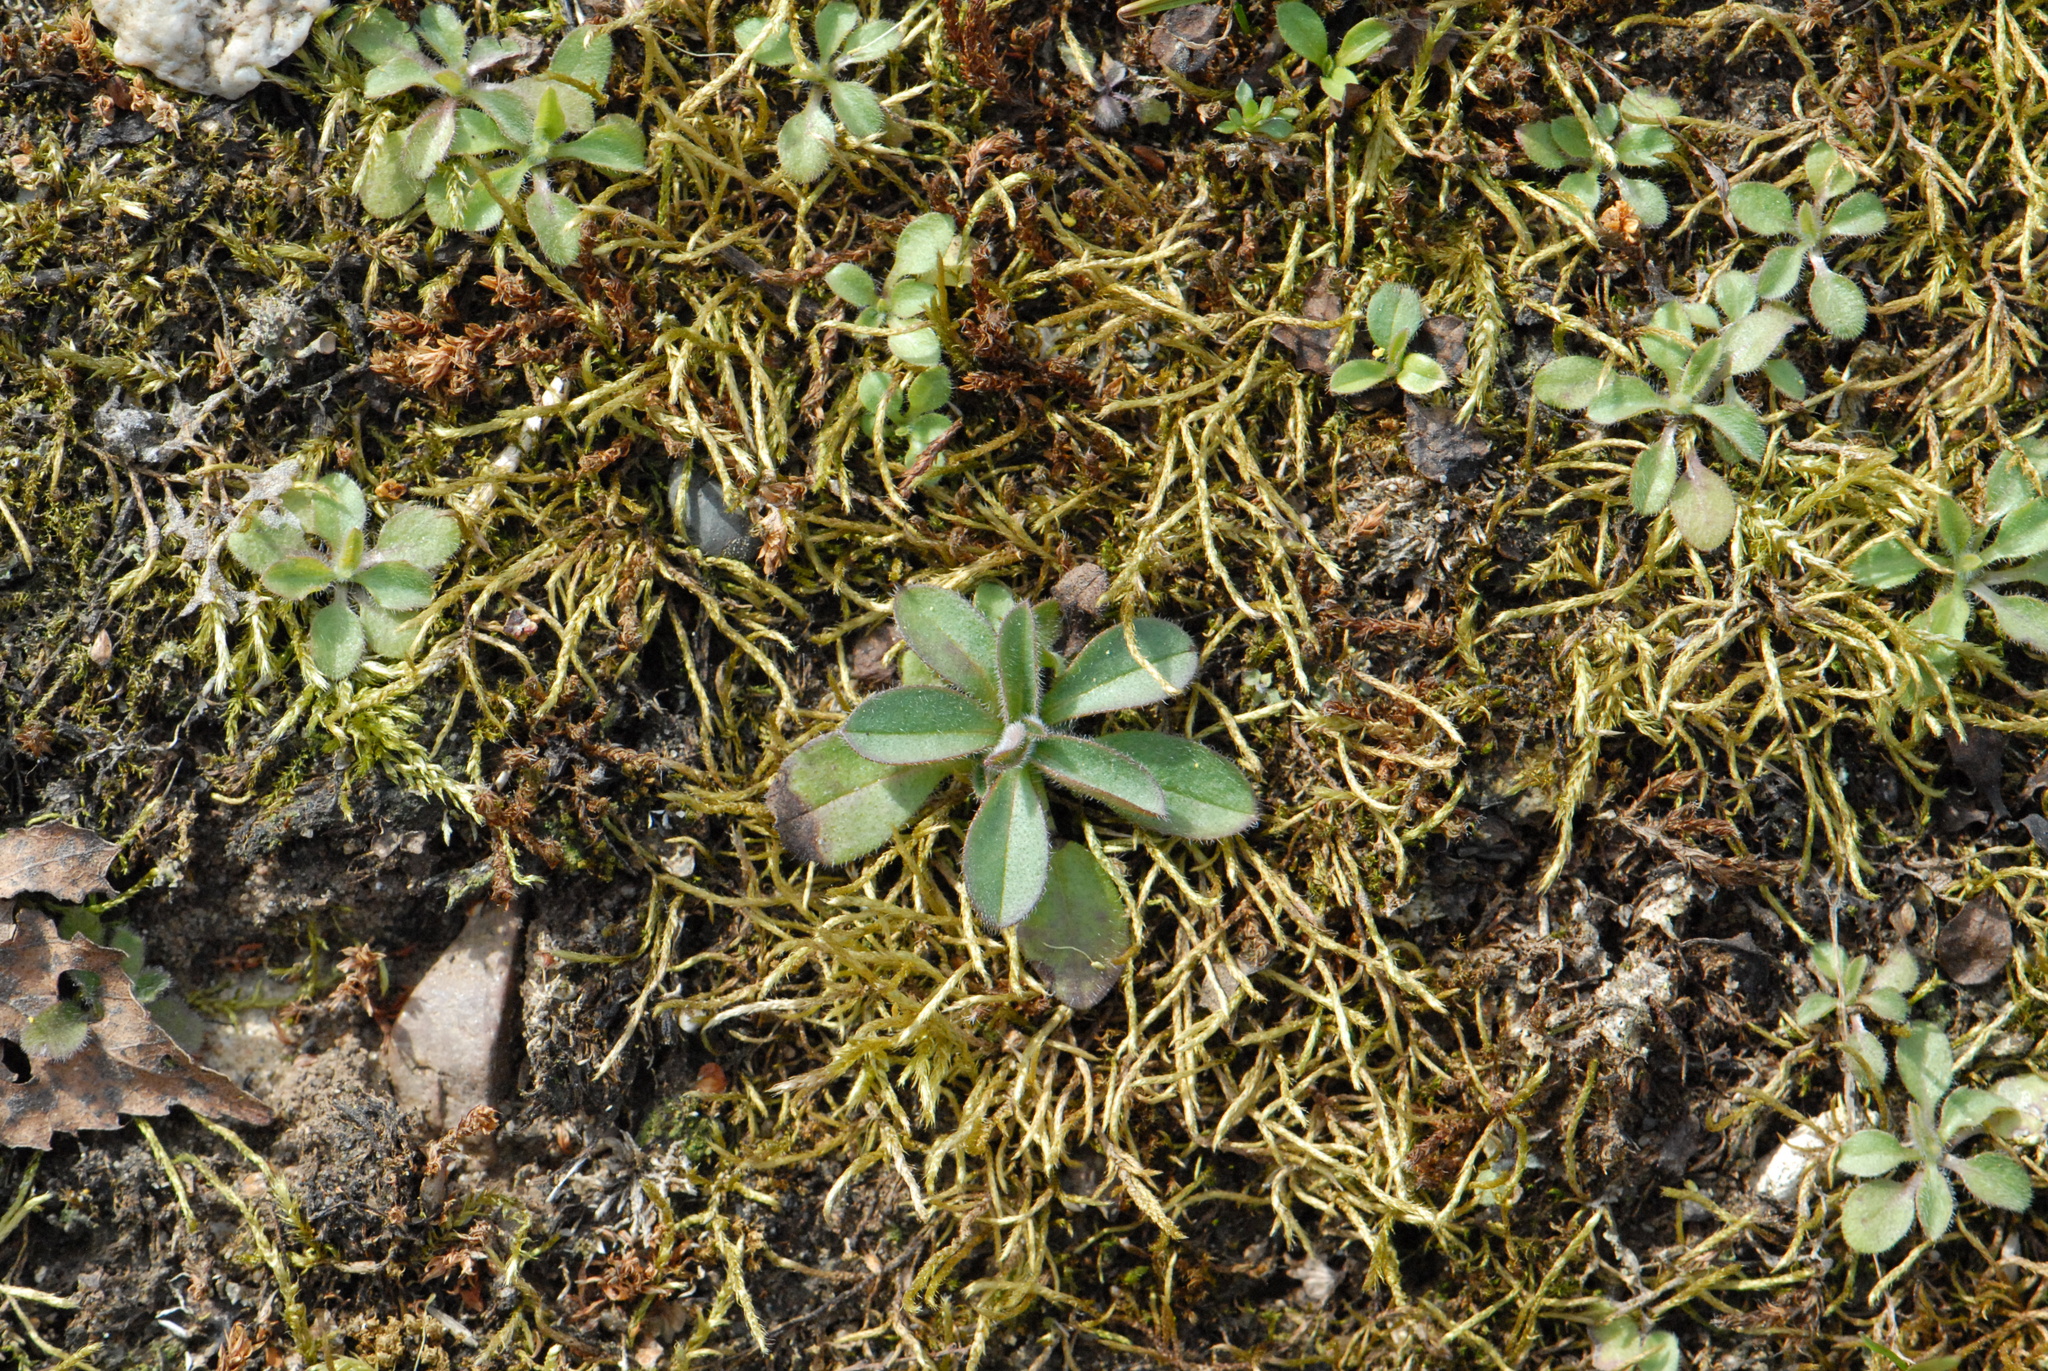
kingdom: Plantae
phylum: Tracheophyta
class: Magnoliopsida
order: Asterales
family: Asteraceae
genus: Pilosella
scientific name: Pilosella officinarum
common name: Mouse-ear hawkweed
